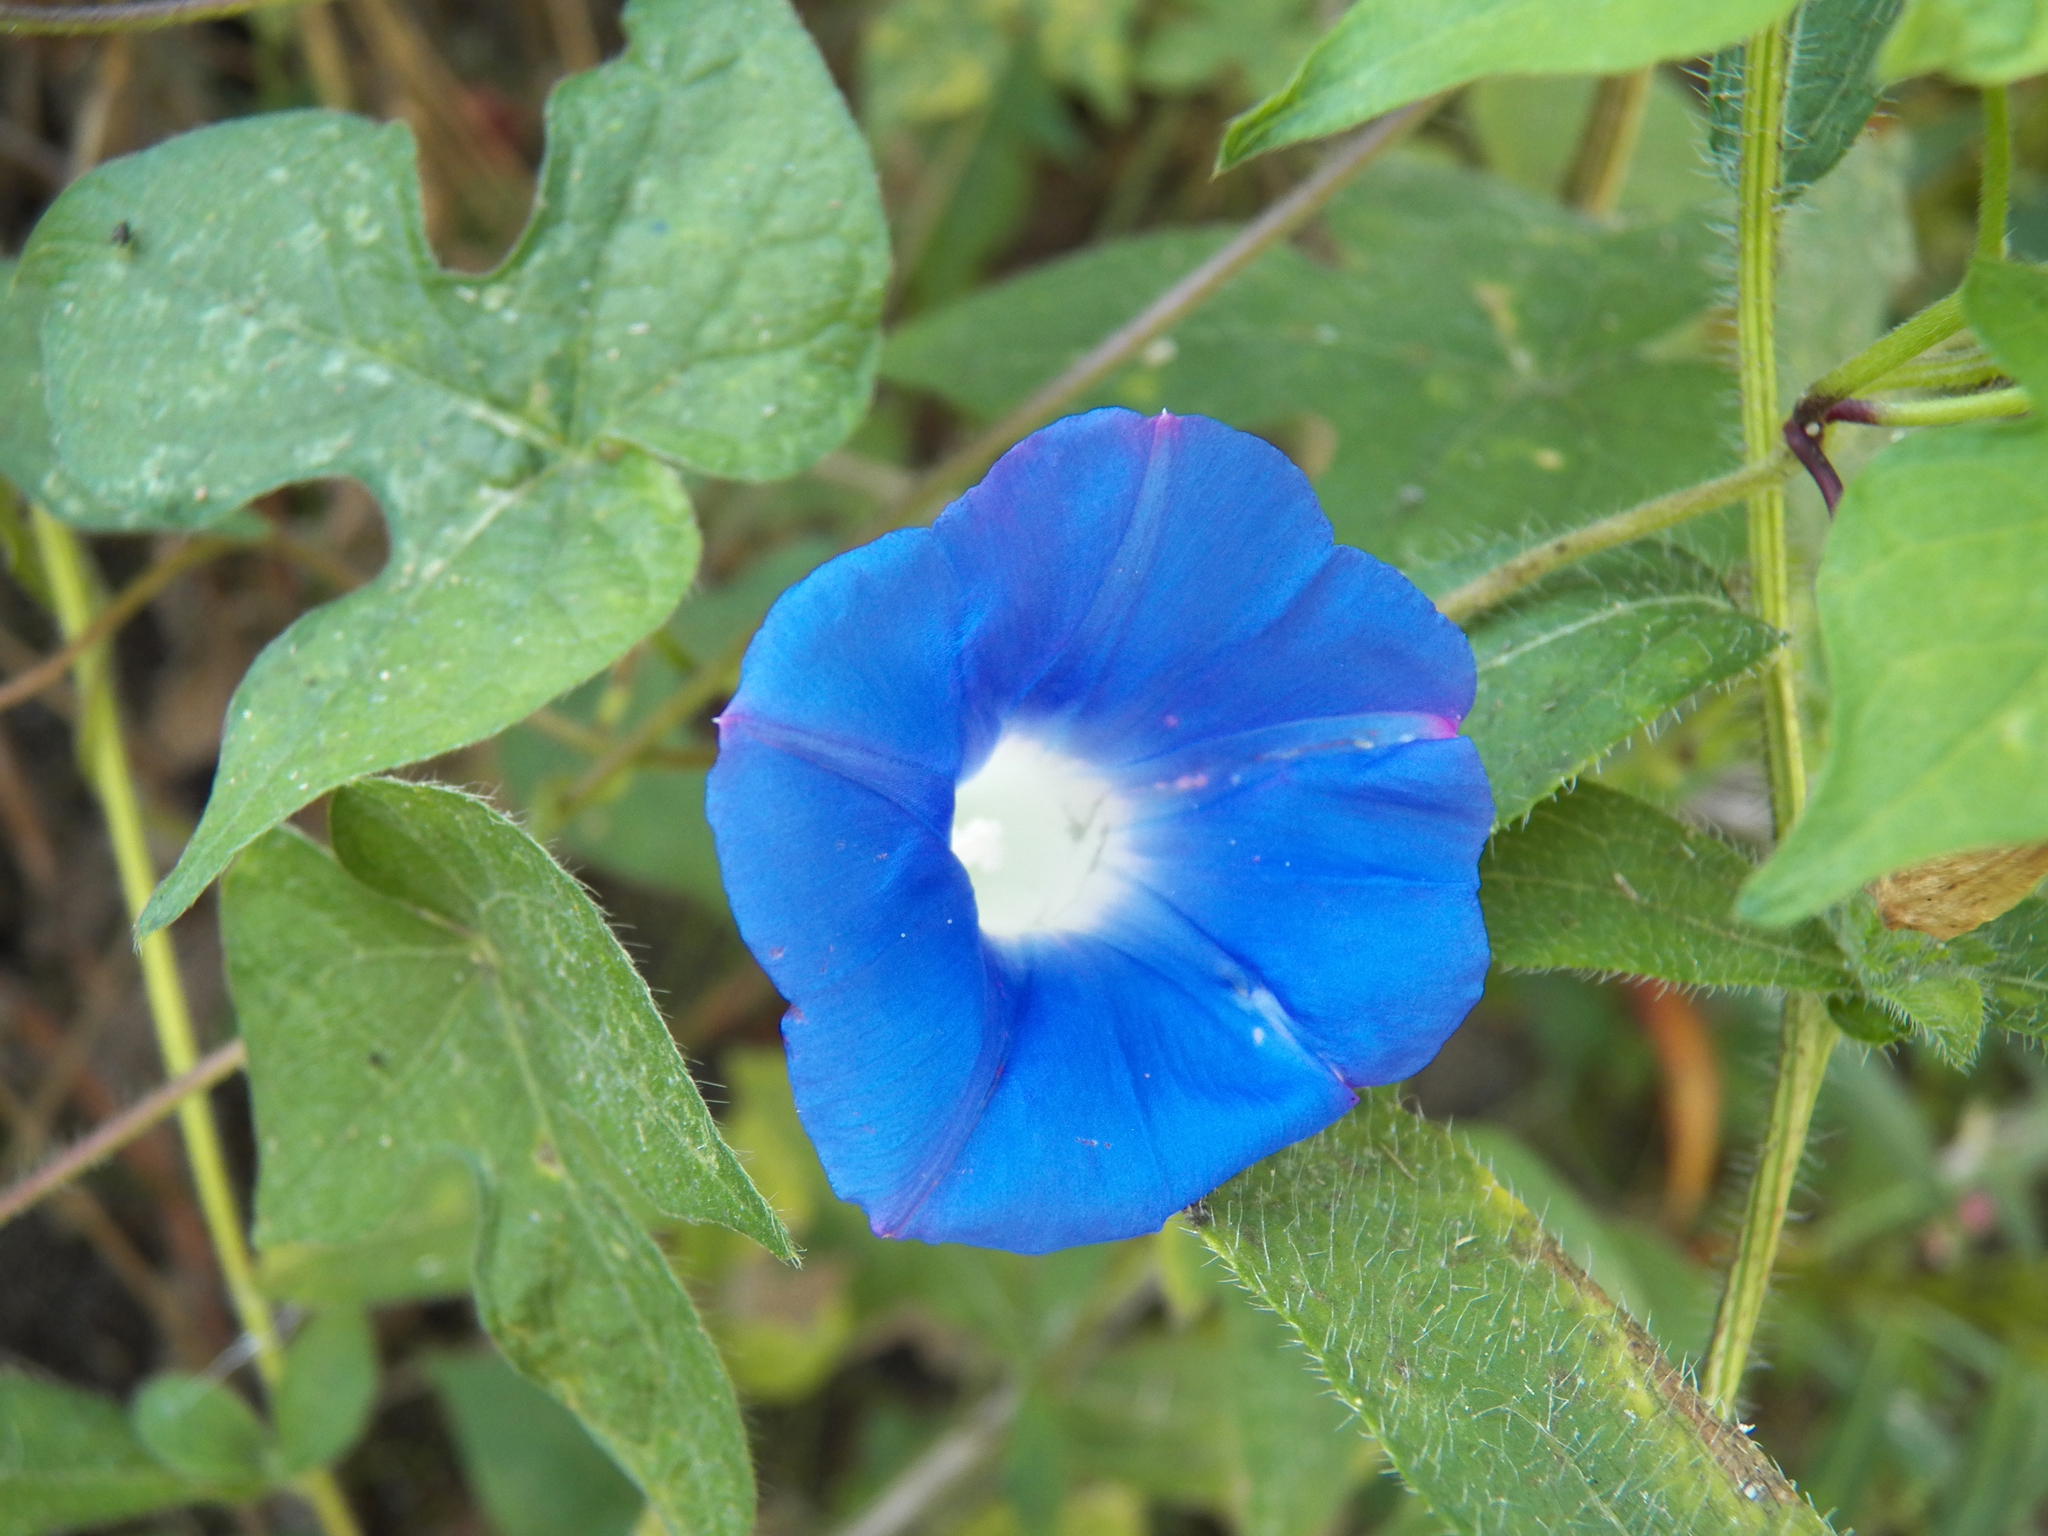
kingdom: Plantae
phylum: Tracheophyta
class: Magnoliopsida
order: Solanales
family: Convolvulaceae
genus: Ipomoea
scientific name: Ipomoea hederacea
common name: Ivy-leaved morning-glory
